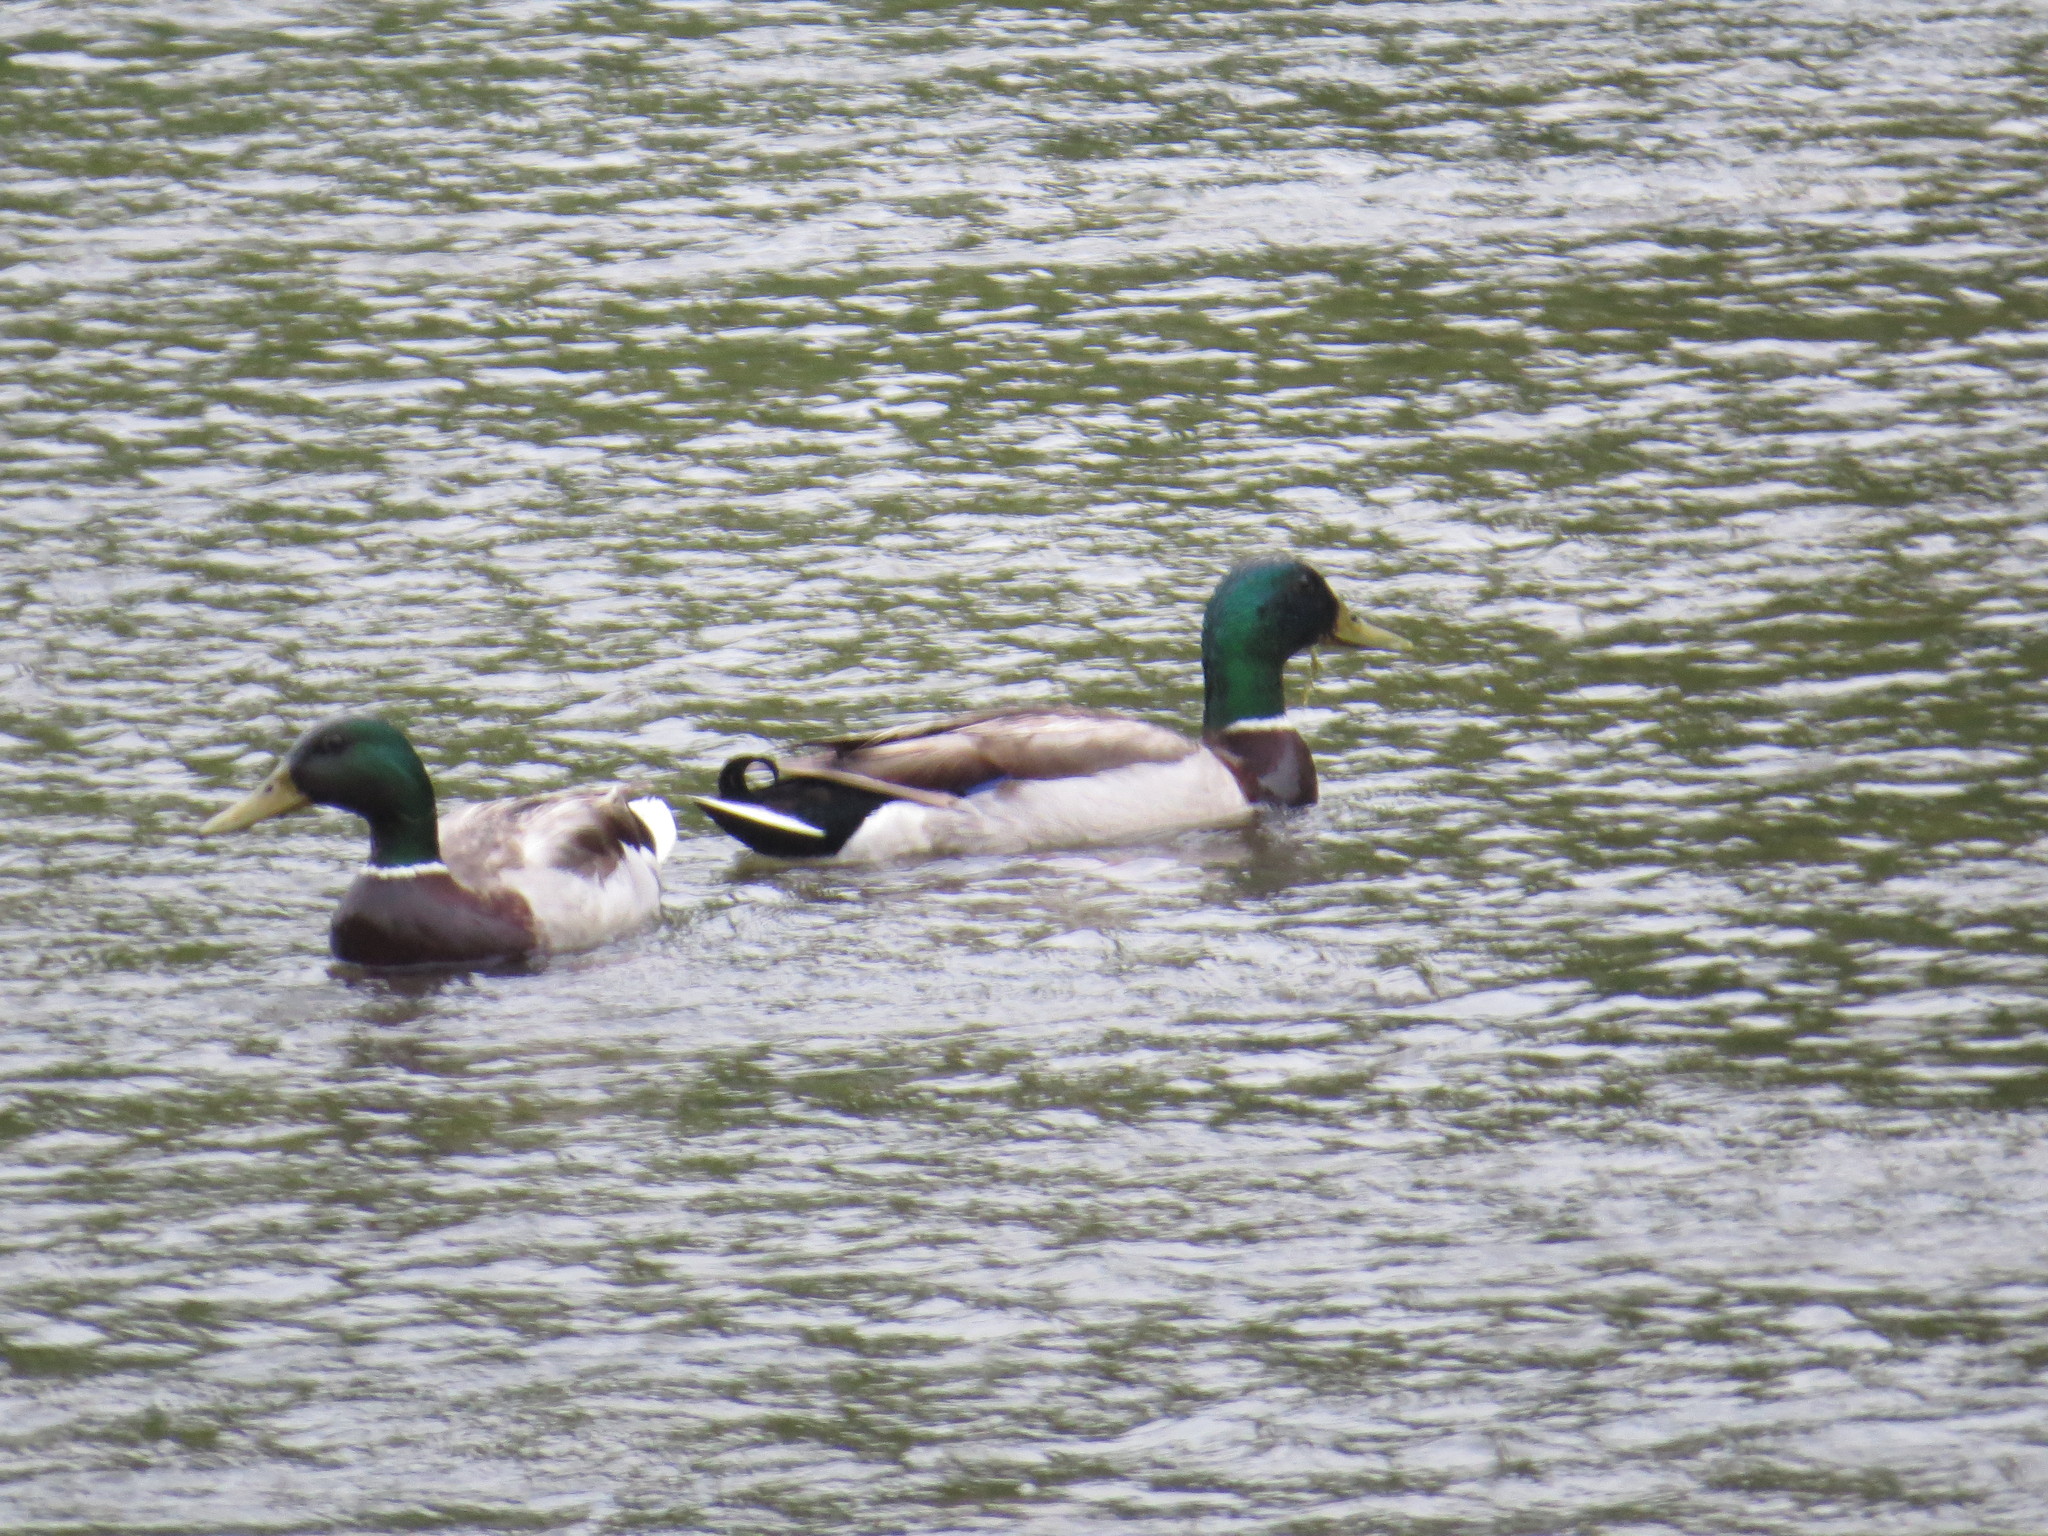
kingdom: Animalia
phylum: Chordata
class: Aves
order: Anseriformes
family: Anatidae
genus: Anas
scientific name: Anas platyrhynchos
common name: Mallard
